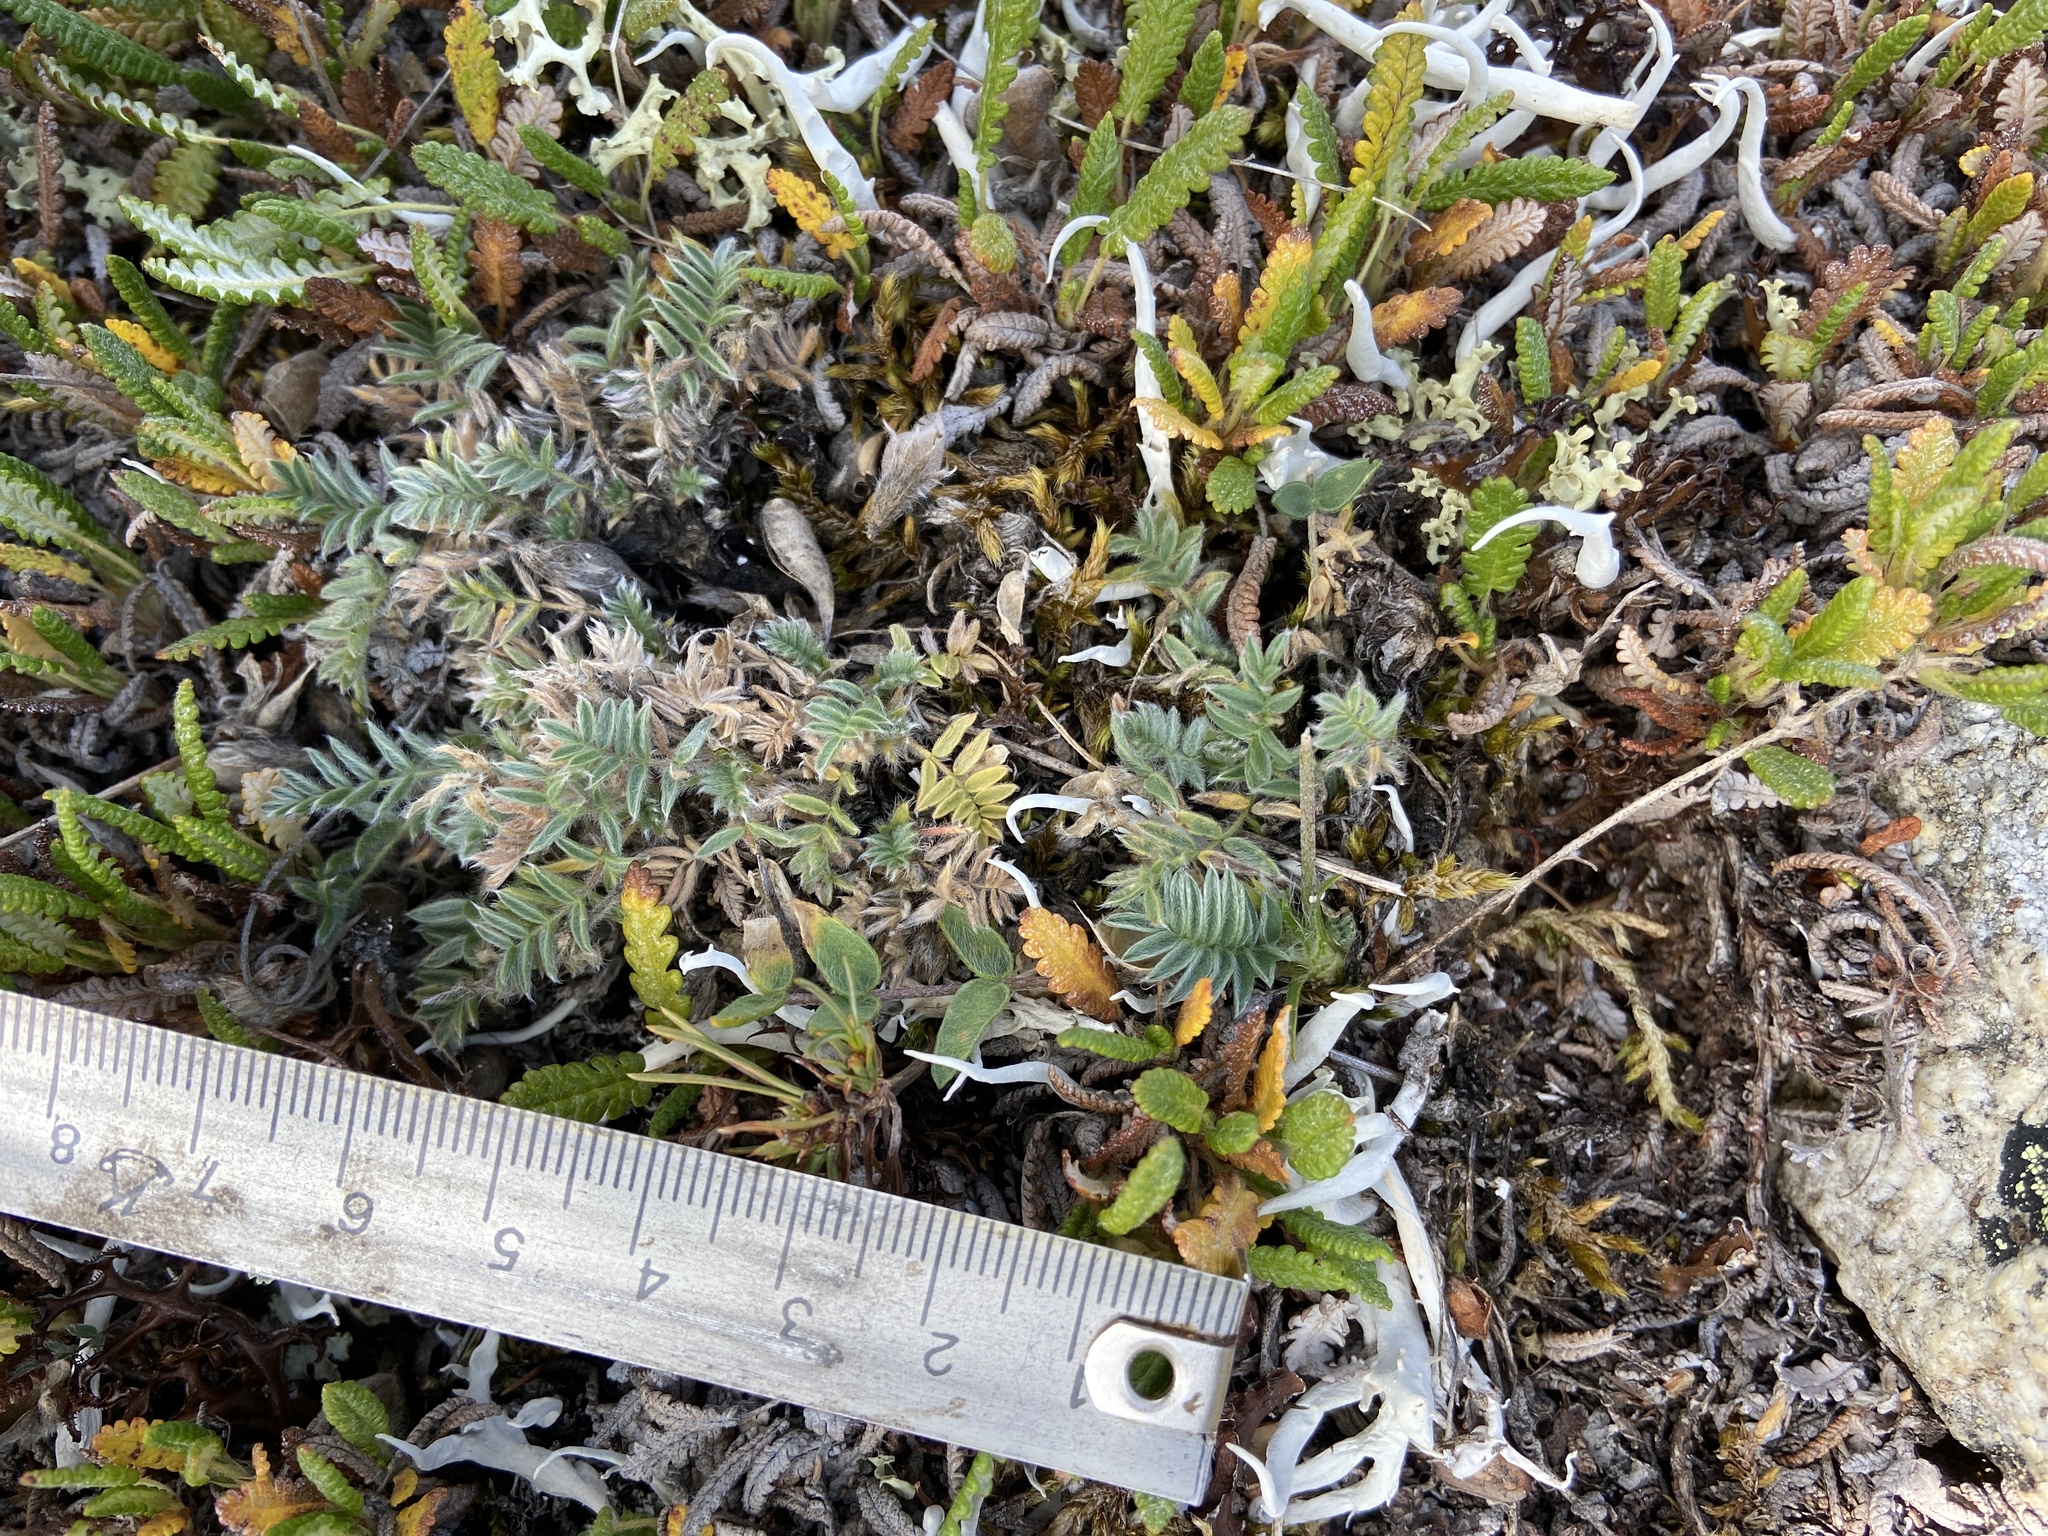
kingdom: Plantae
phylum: Tracheophyta
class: Magnoliopsida
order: Fabales
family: Fabaceae
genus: Oxytropis
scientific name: Oxytropis susumanica
